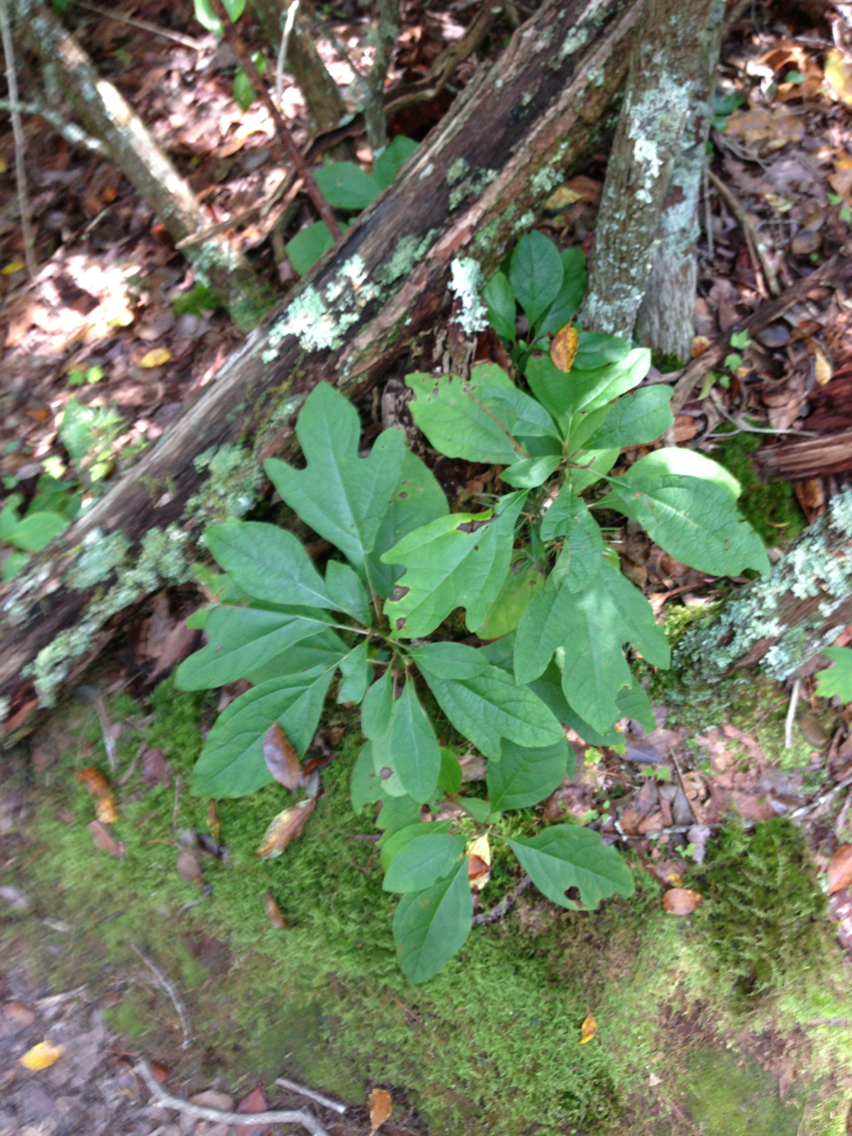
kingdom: Plantae
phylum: Tracheophyta
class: Magnoliopsida
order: Laurales
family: Lauraceae
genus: Sassafras
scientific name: Sassafras albidum
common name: Sassafras
